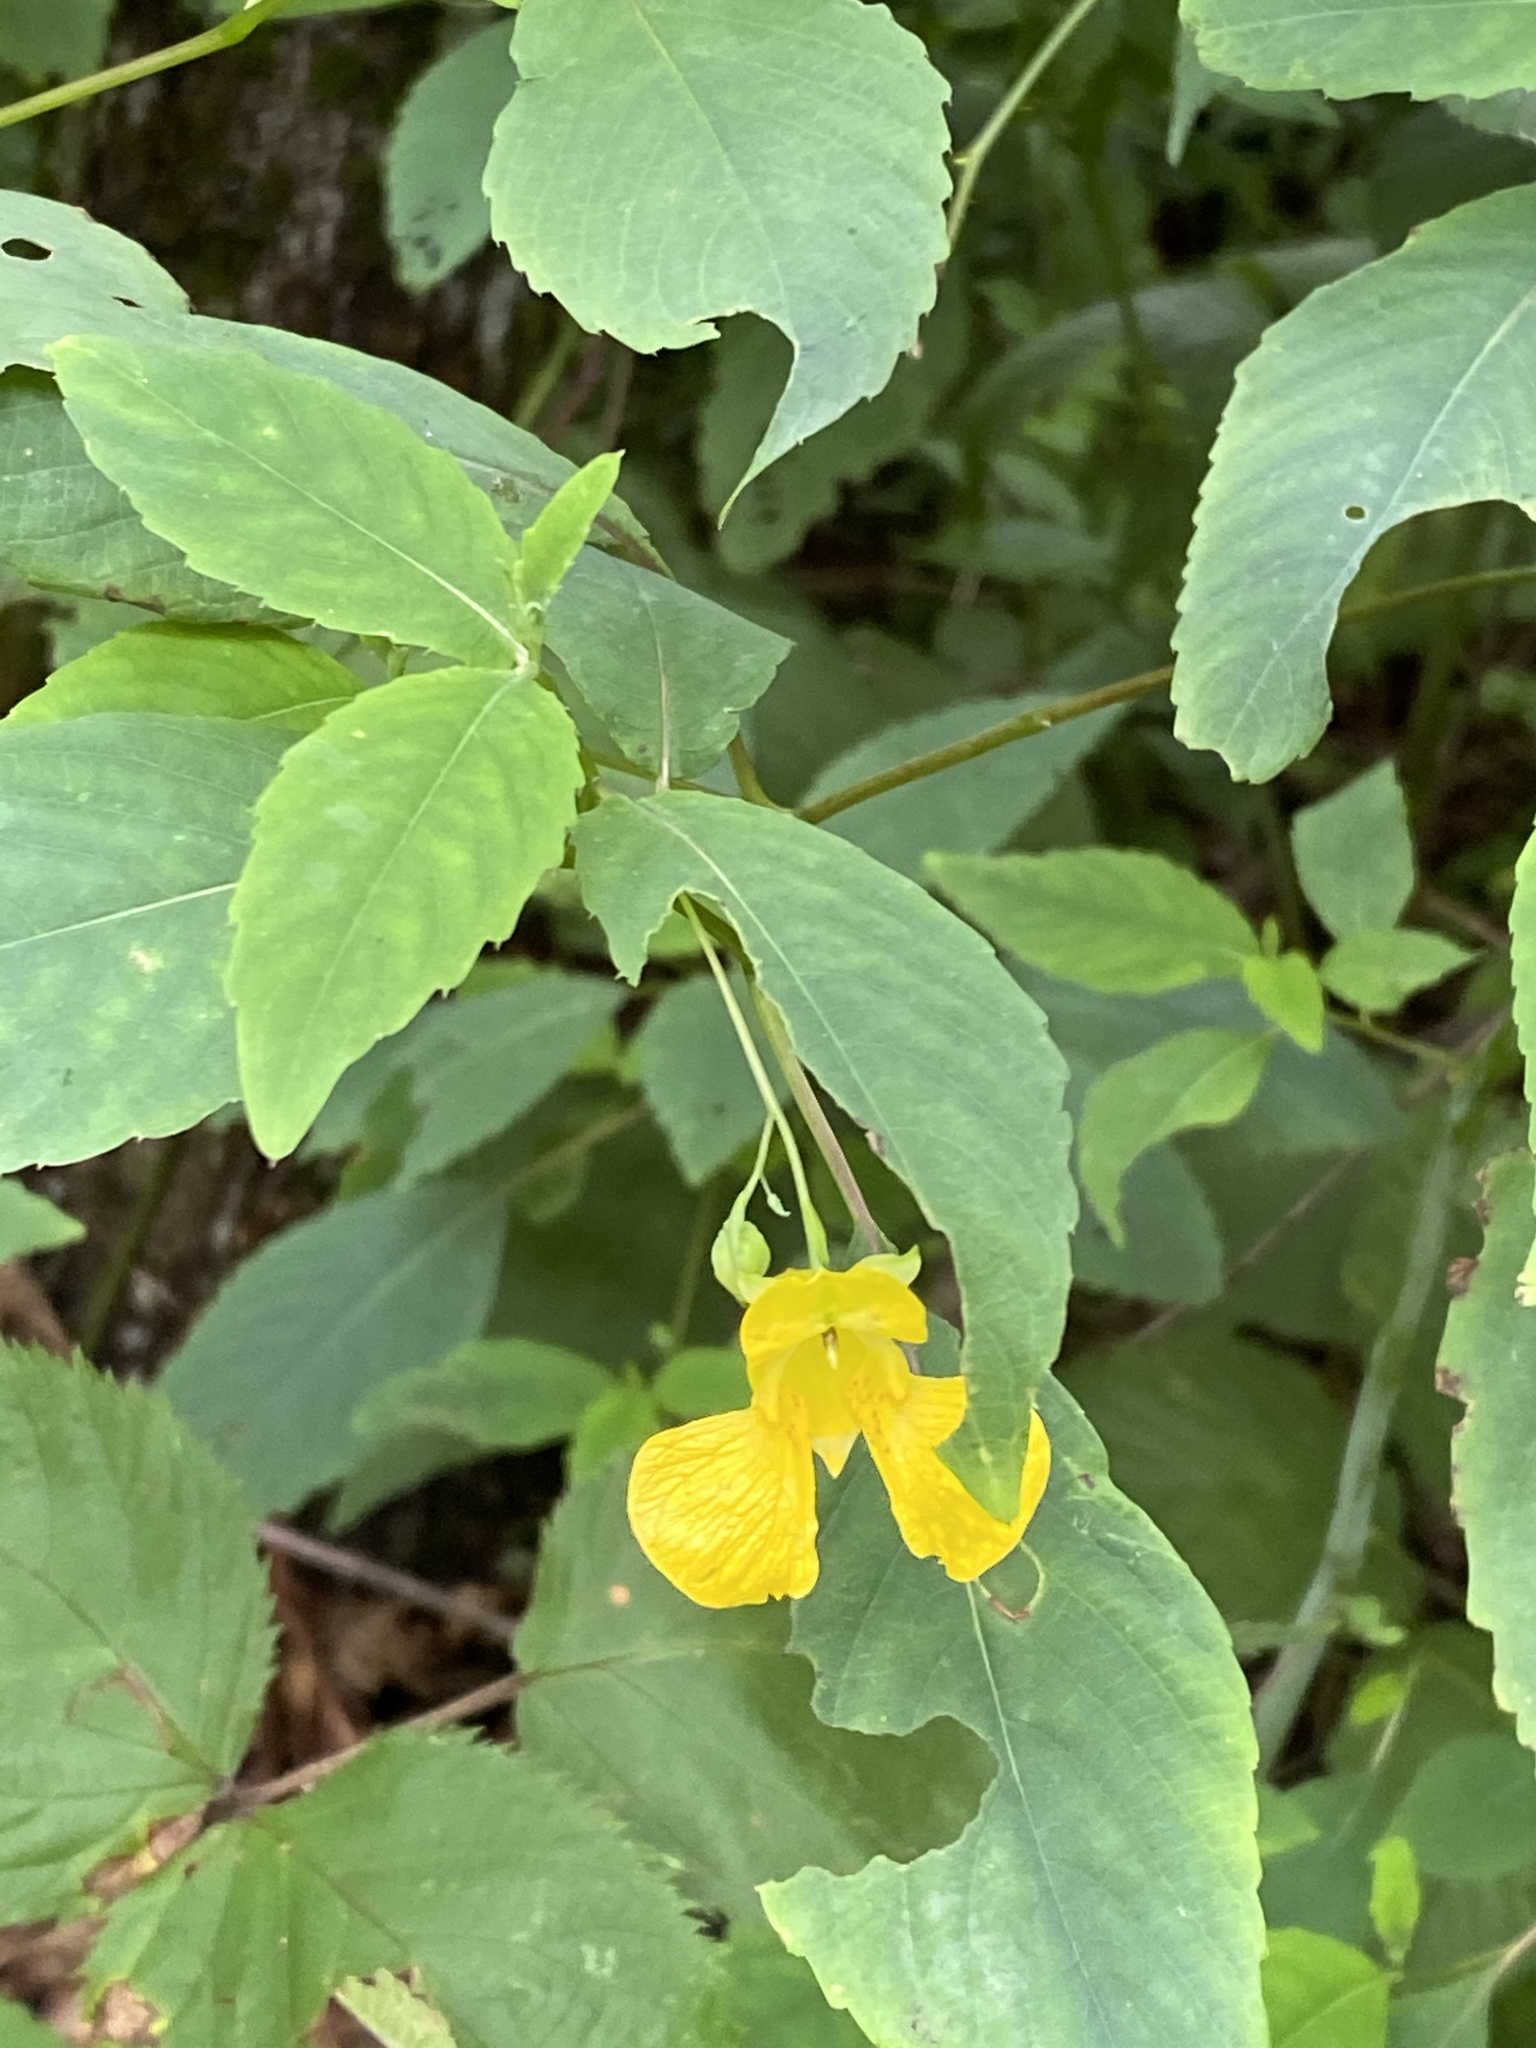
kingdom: Plantae
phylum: Tracheophyta
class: Magnoliopsida
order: Ericales
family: Balsaminaceae
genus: Impatiens
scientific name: Impatiens pallida
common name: Pale snapweed
